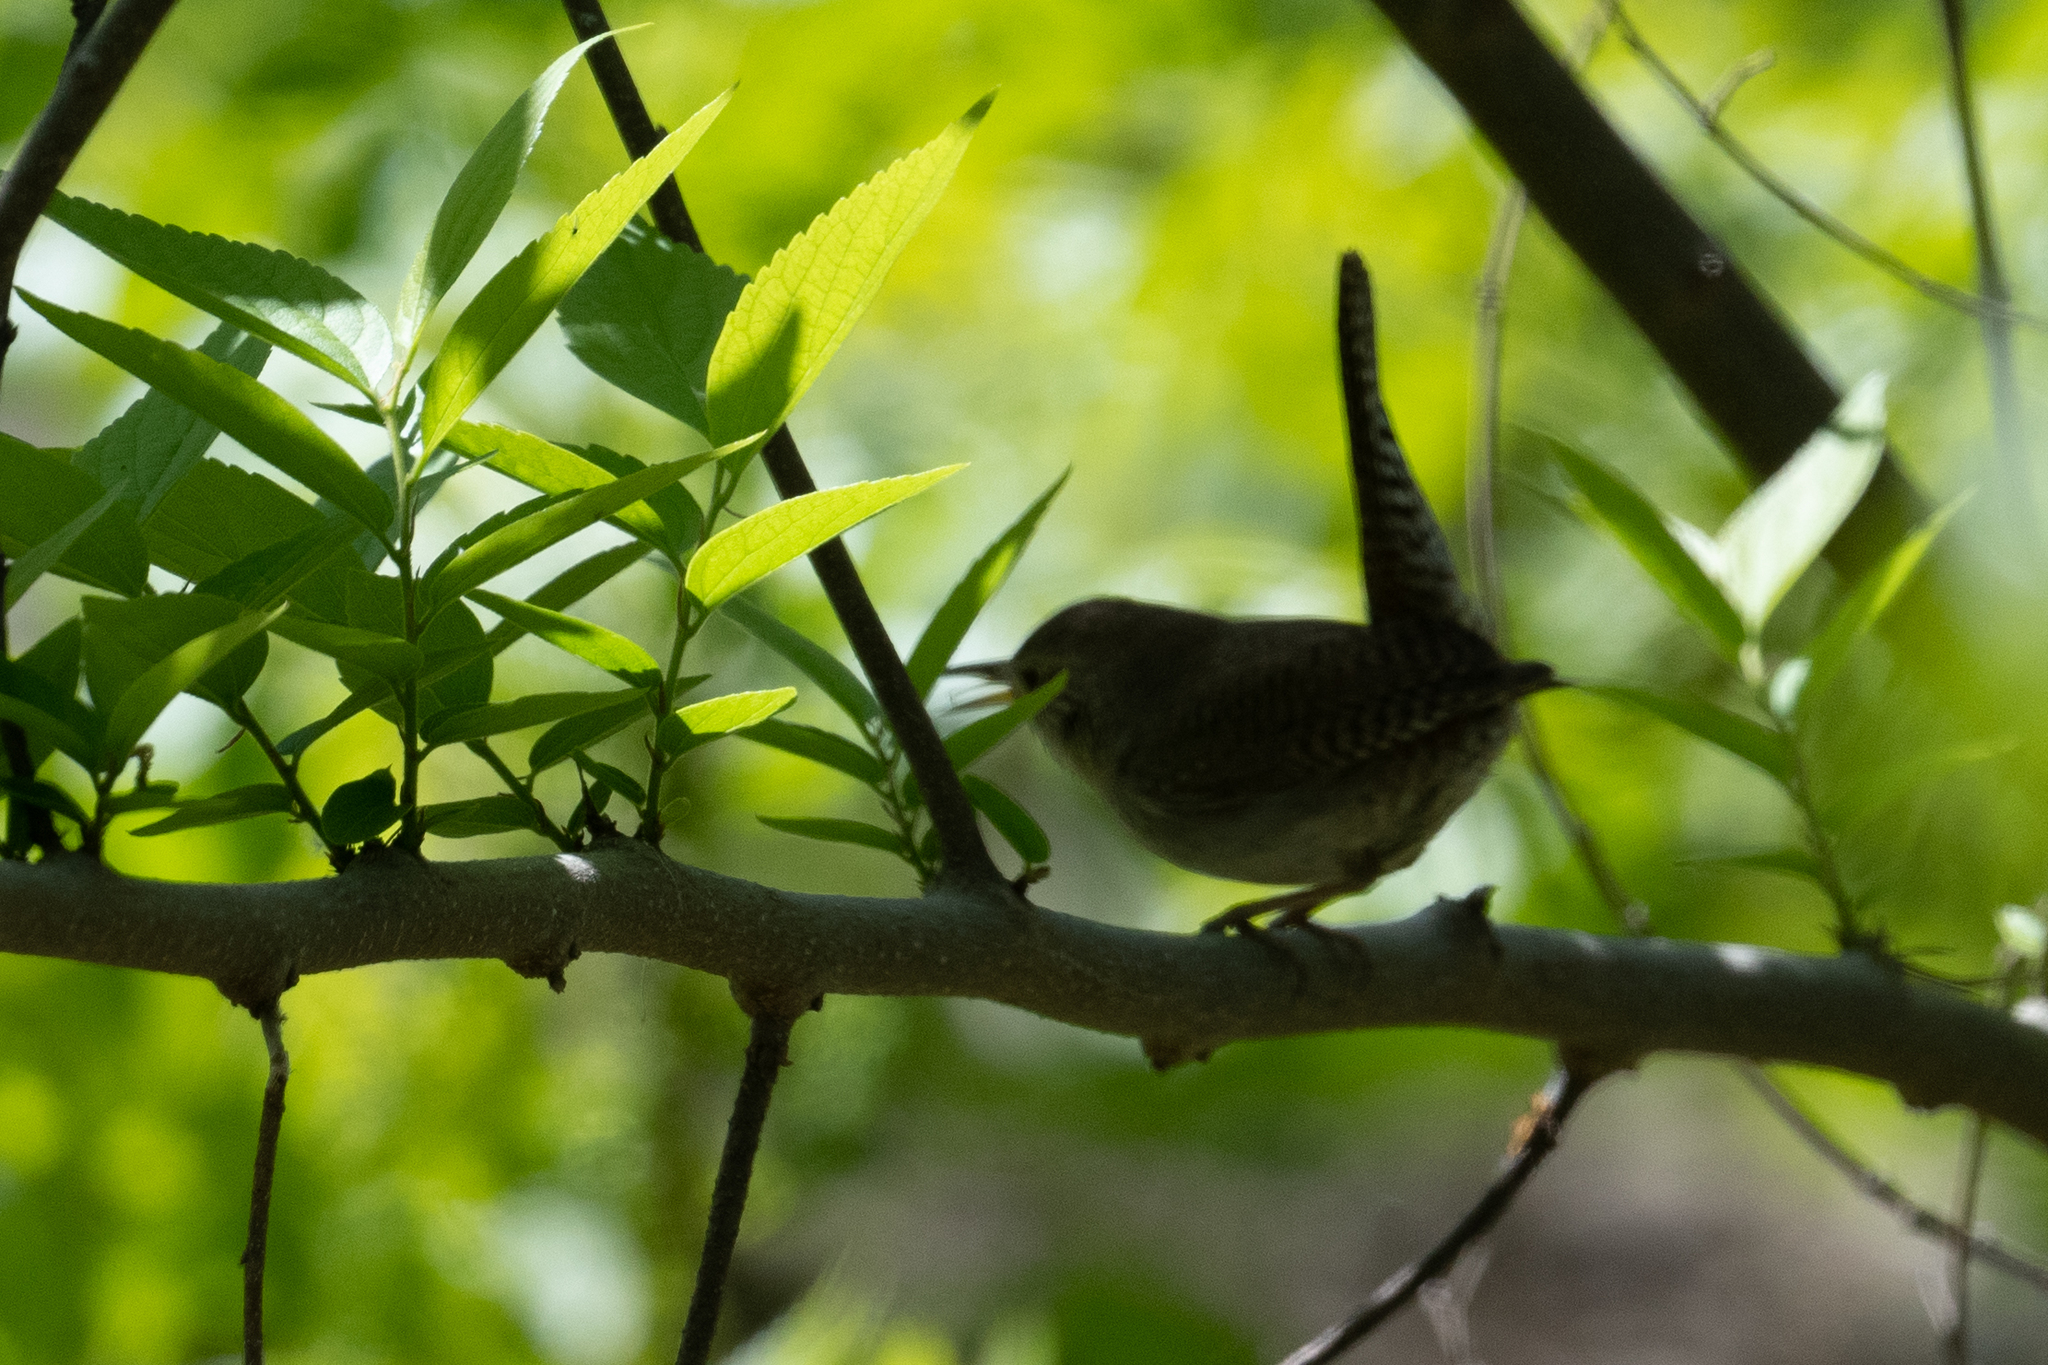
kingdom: Animalia
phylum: Chordata
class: Aves
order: Passeriformes
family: Troglodytidae
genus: Troglodytes
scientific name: Troglodytes aedon
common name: House wren
